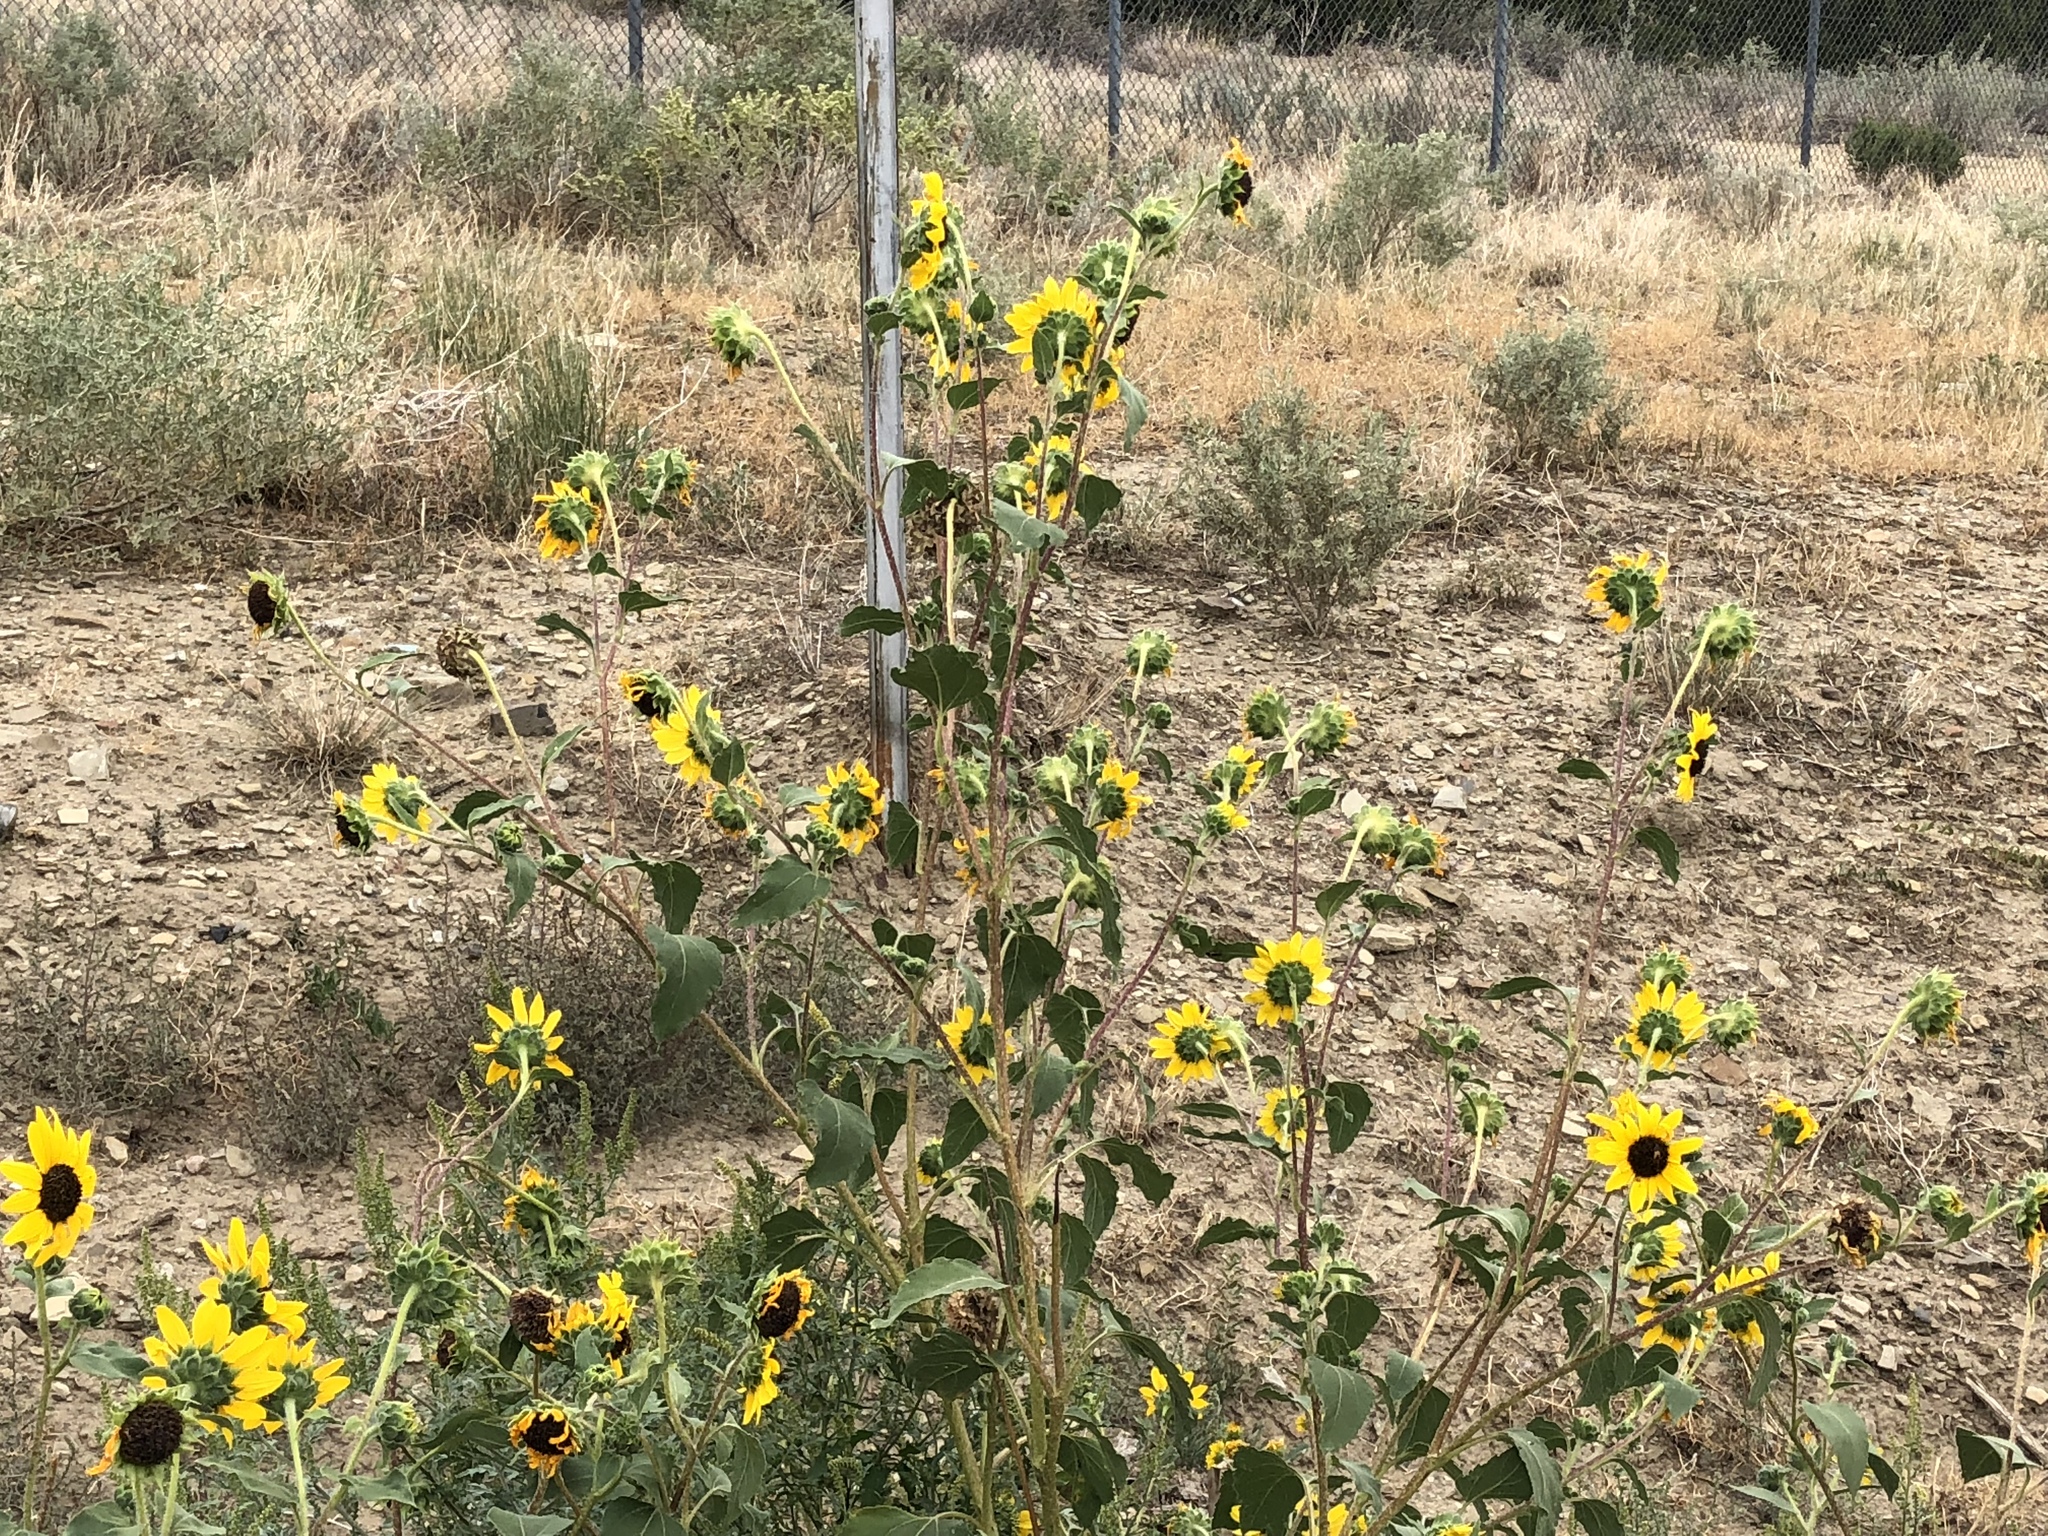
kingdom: Plantae
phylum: Tracheophyta
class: Magnoliopsida
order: Asterales
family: Asteraceae
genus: Helianthus
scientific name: Helianthus annuus
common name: Sunflower
